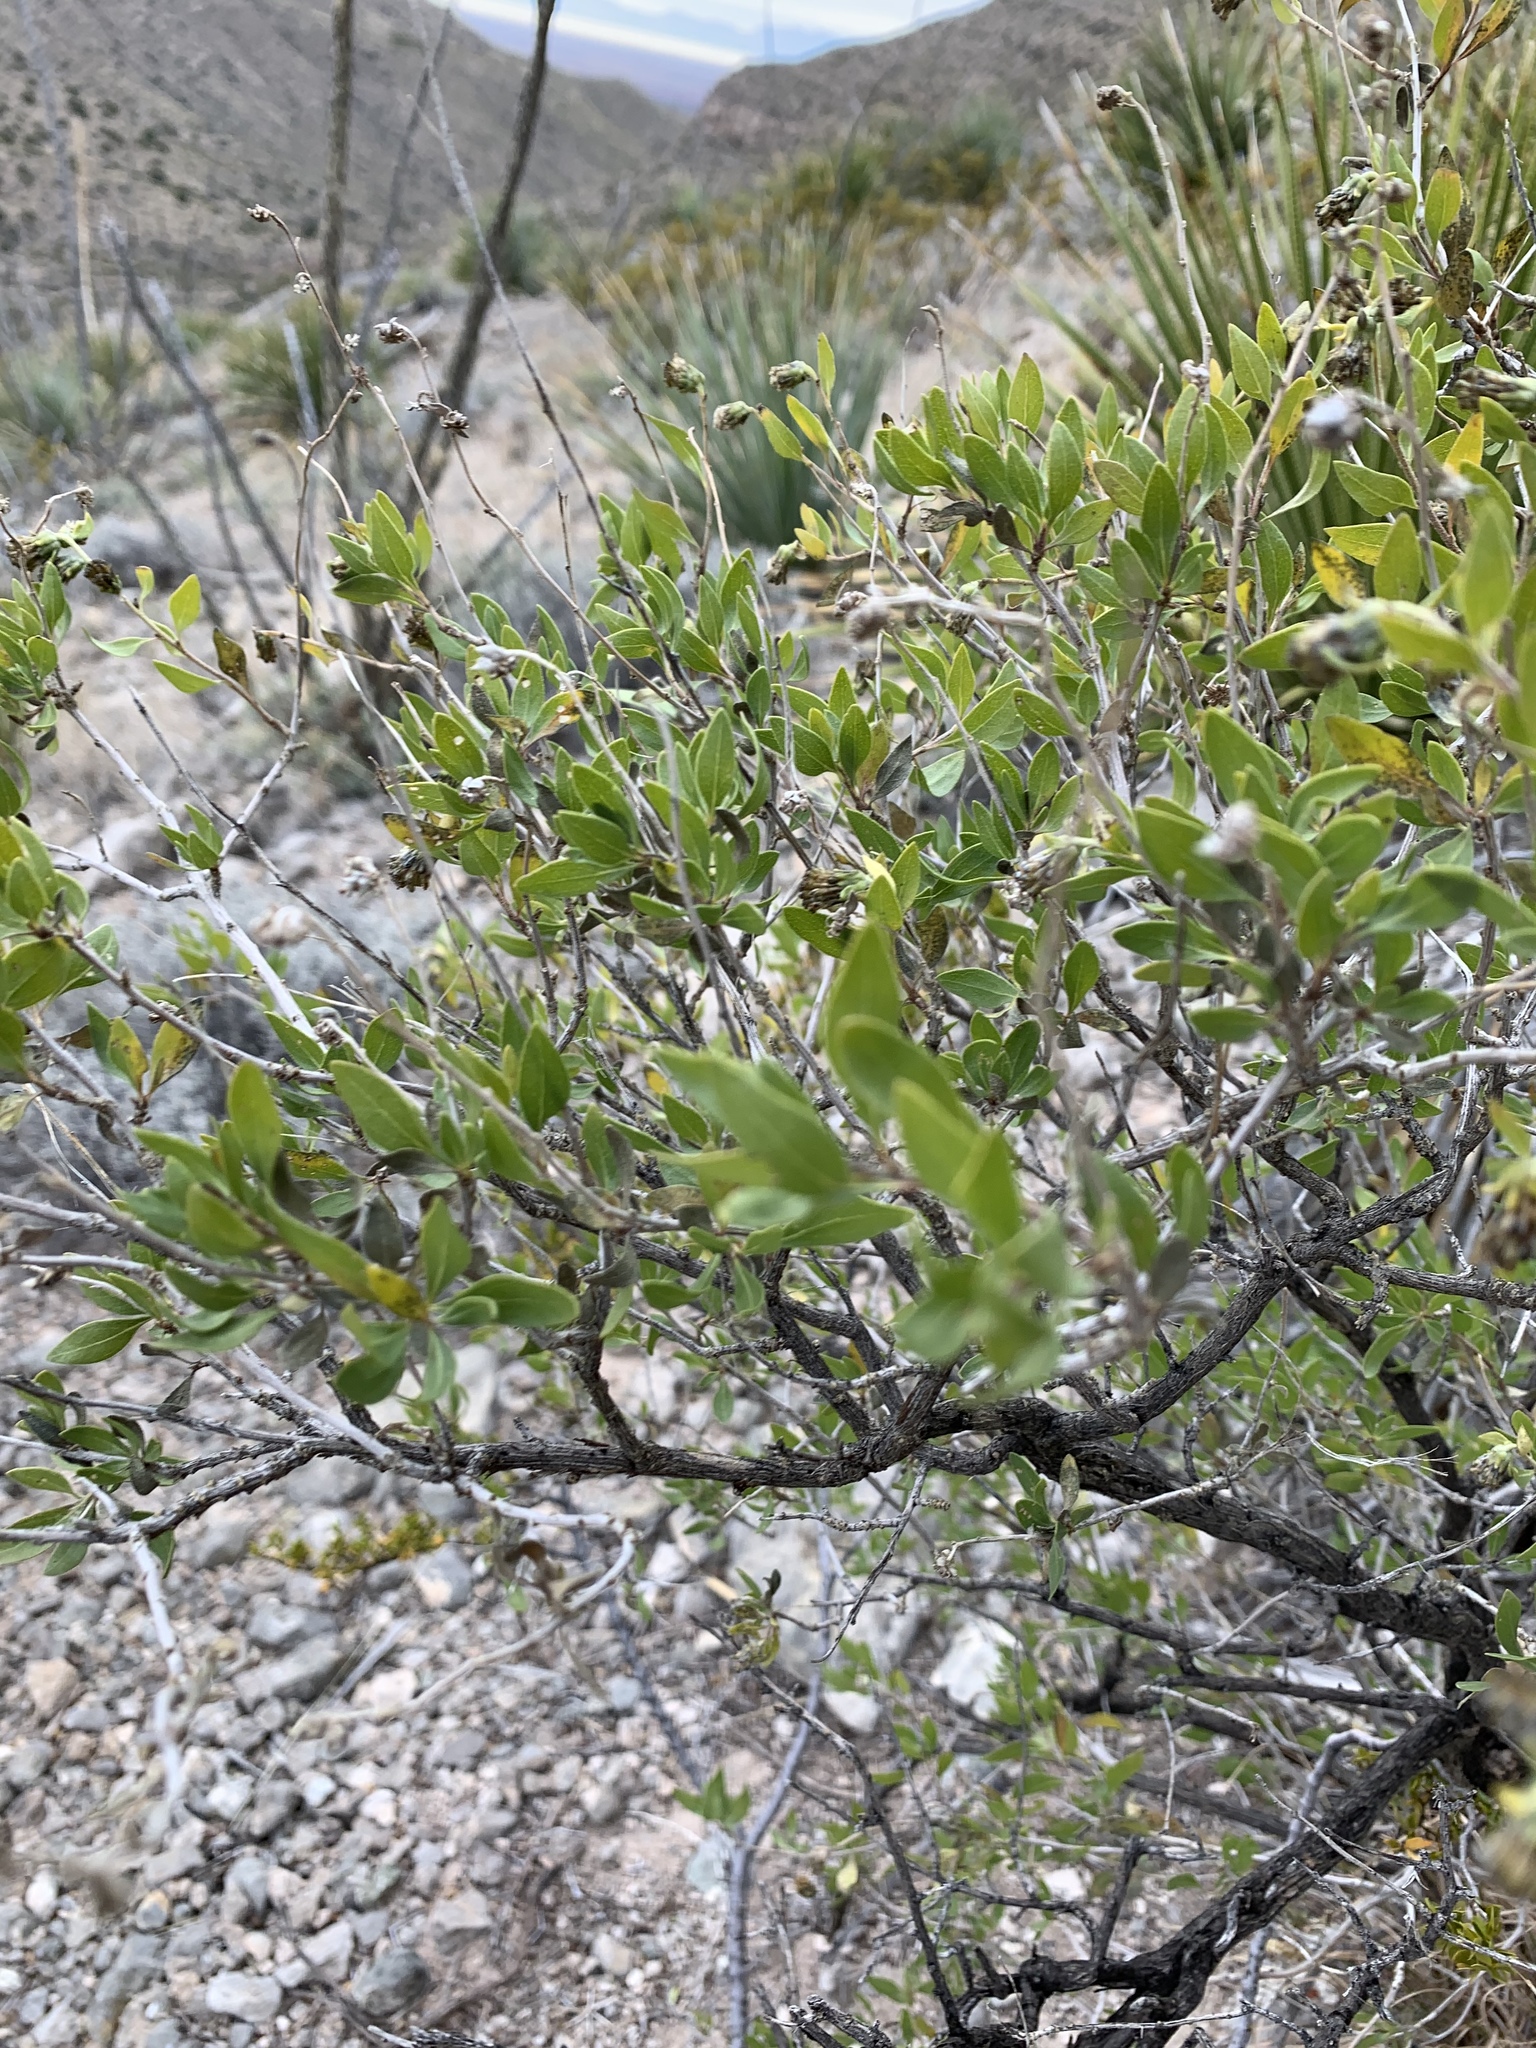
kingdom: Plantae
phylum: Tracheophyta
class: Magnoliopsida
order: Asterales
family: Asteraceae
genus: Flourensia
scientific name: Flourensia cernua
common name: Varnishbush
